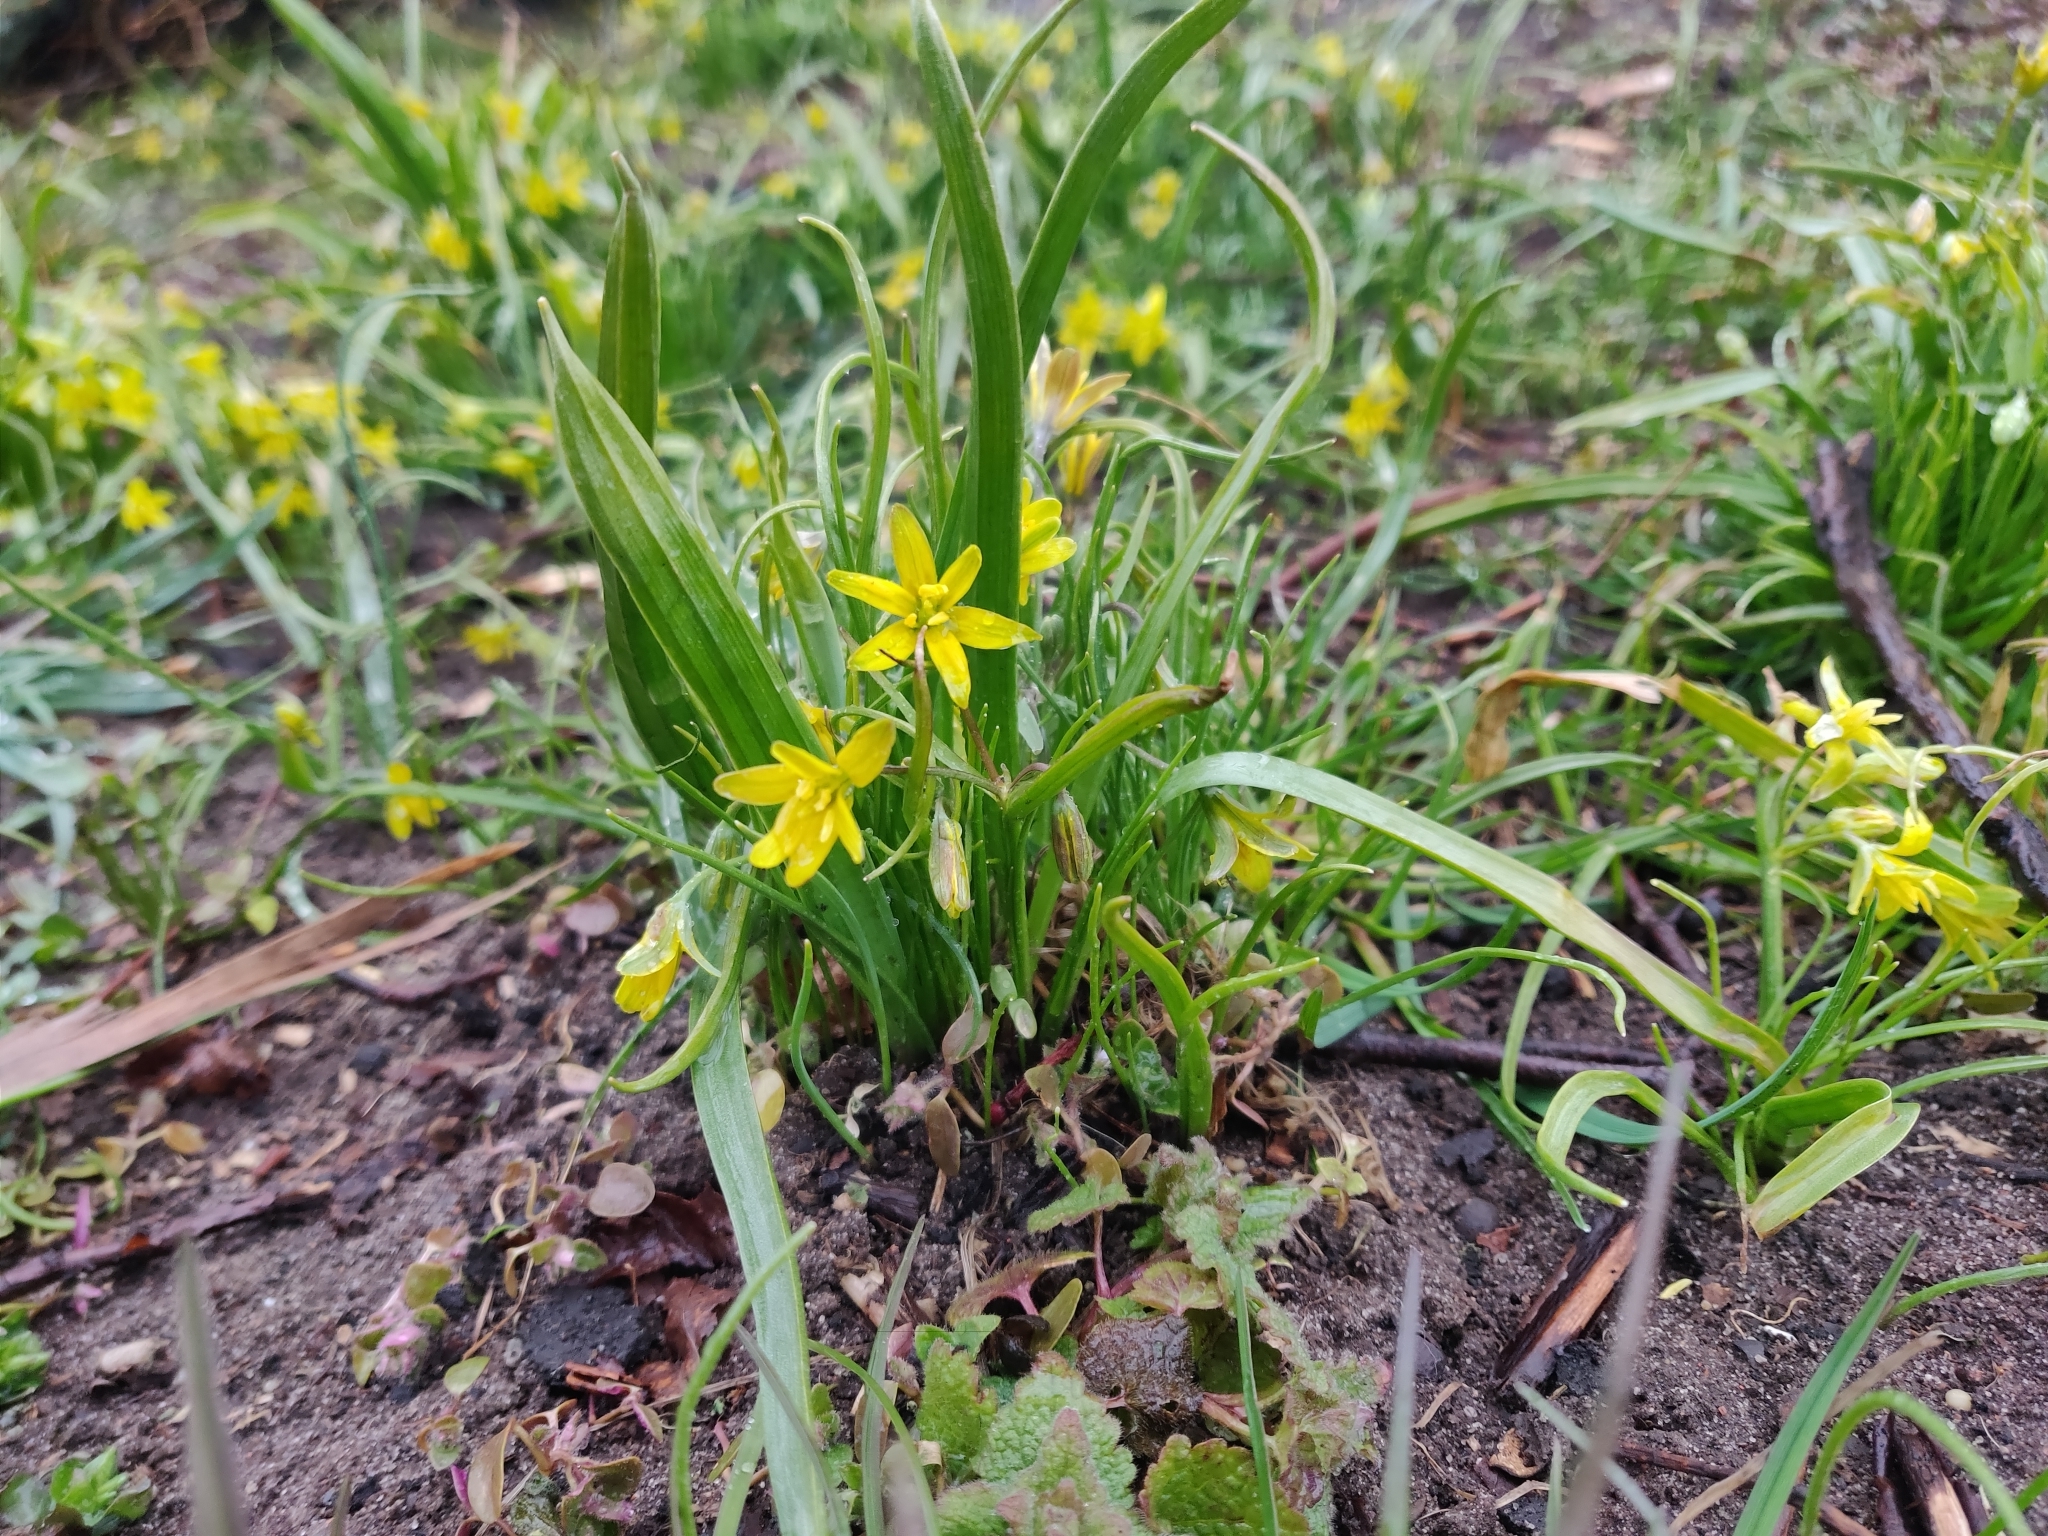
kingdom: Plantae
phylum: Tracheophyta
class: Liliopsida
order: Liliales
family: Liliaceae
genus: Gagea
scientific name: Gagea lutea
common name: Yellow star-of-bethlehem
